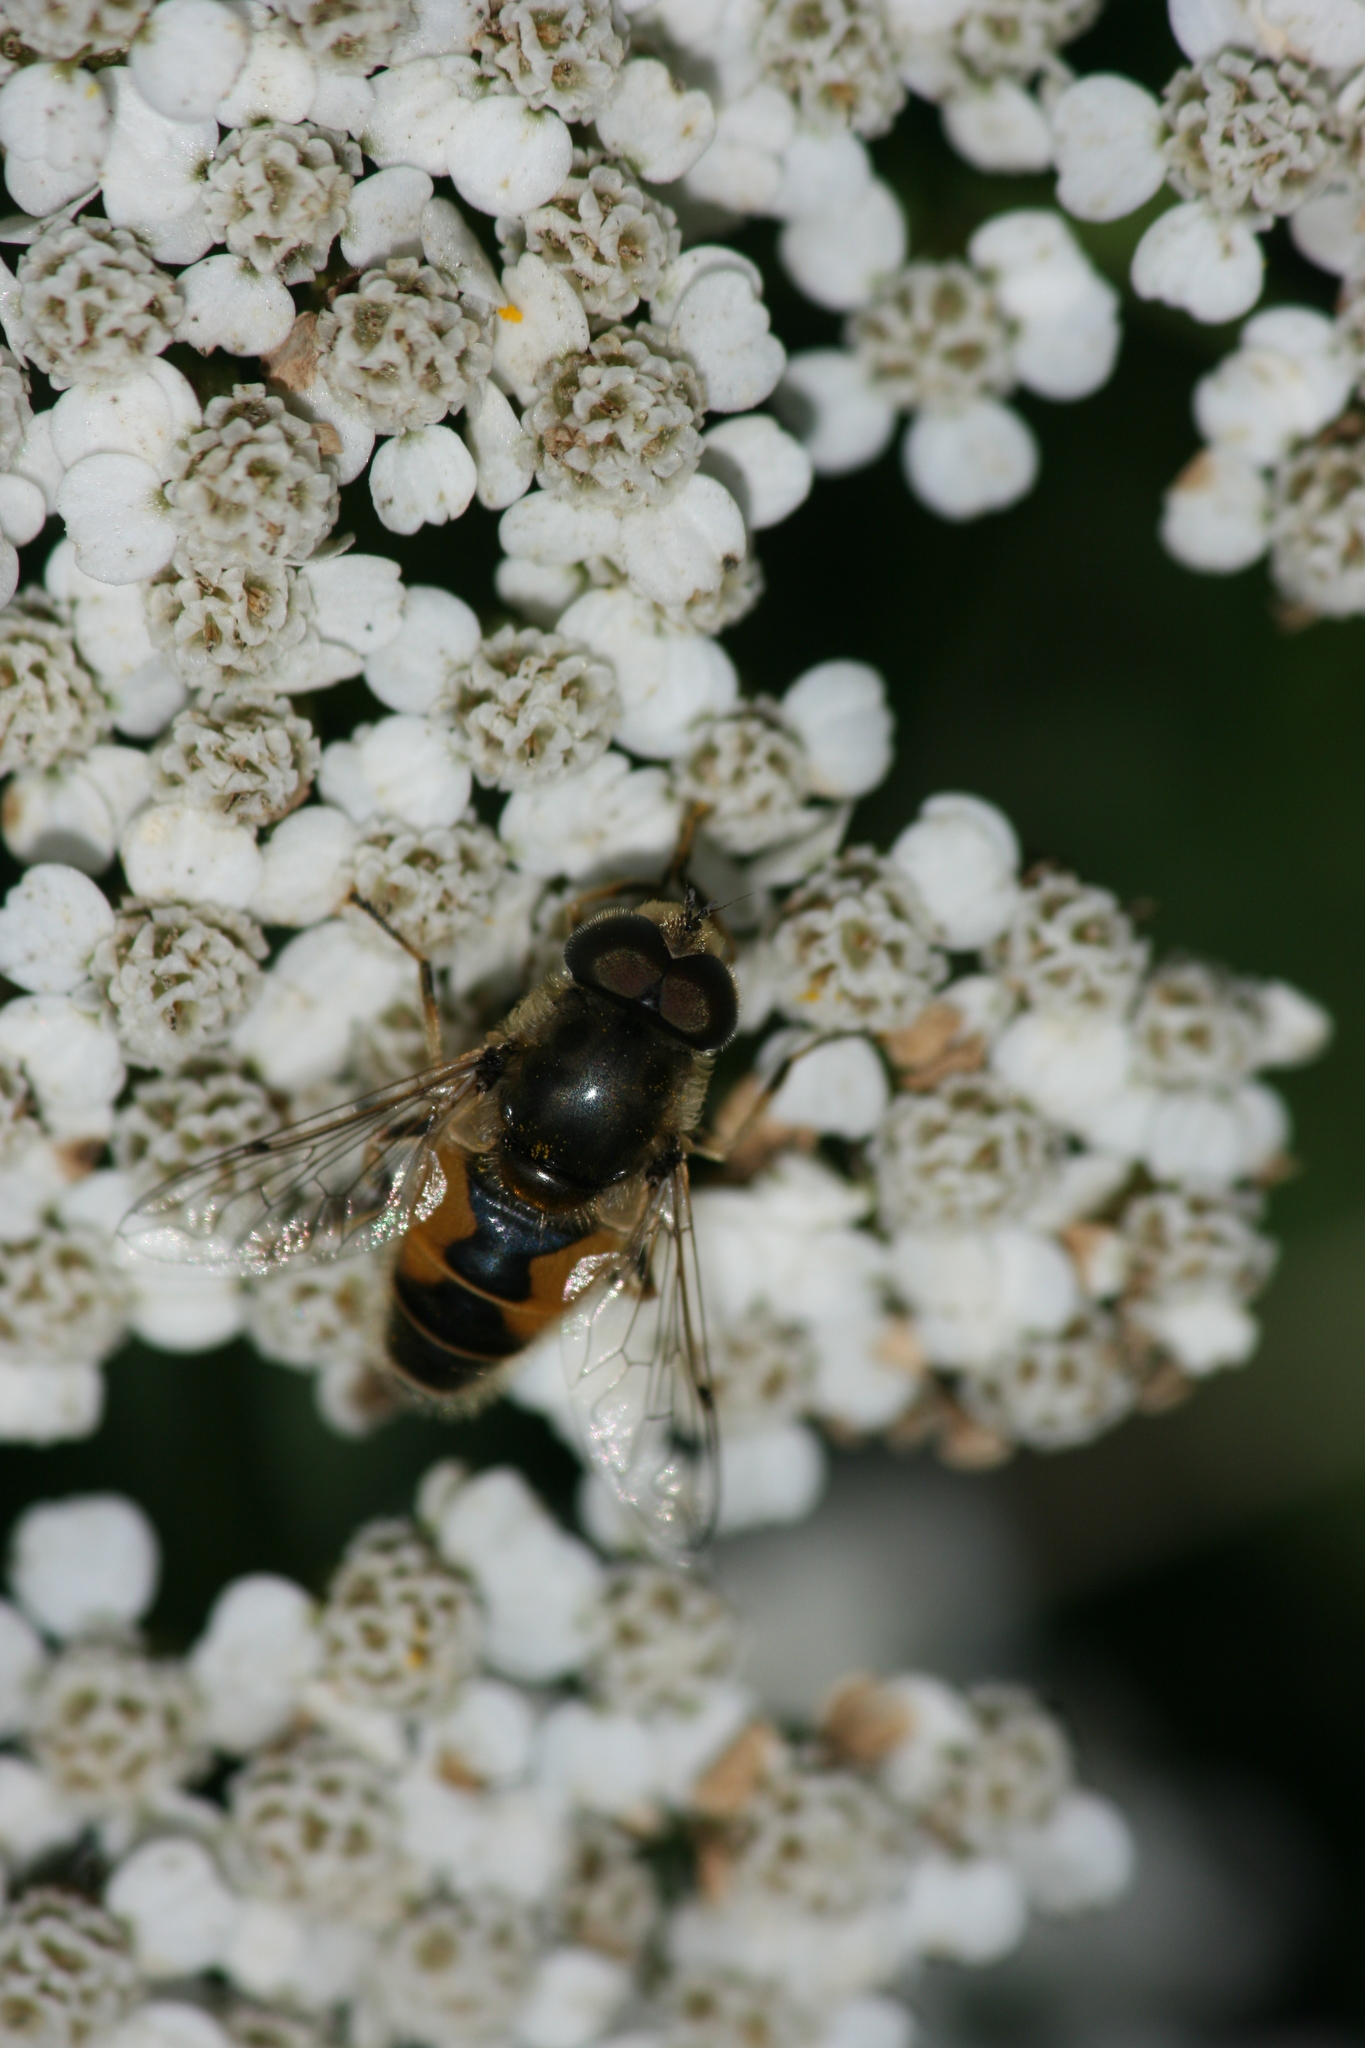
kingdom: Animalia
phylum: Arthropoda
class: Insecta
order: Diptera
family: Syrphidae
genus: Eristalis
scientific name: Eristalis arbustorum
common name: Hover fly
